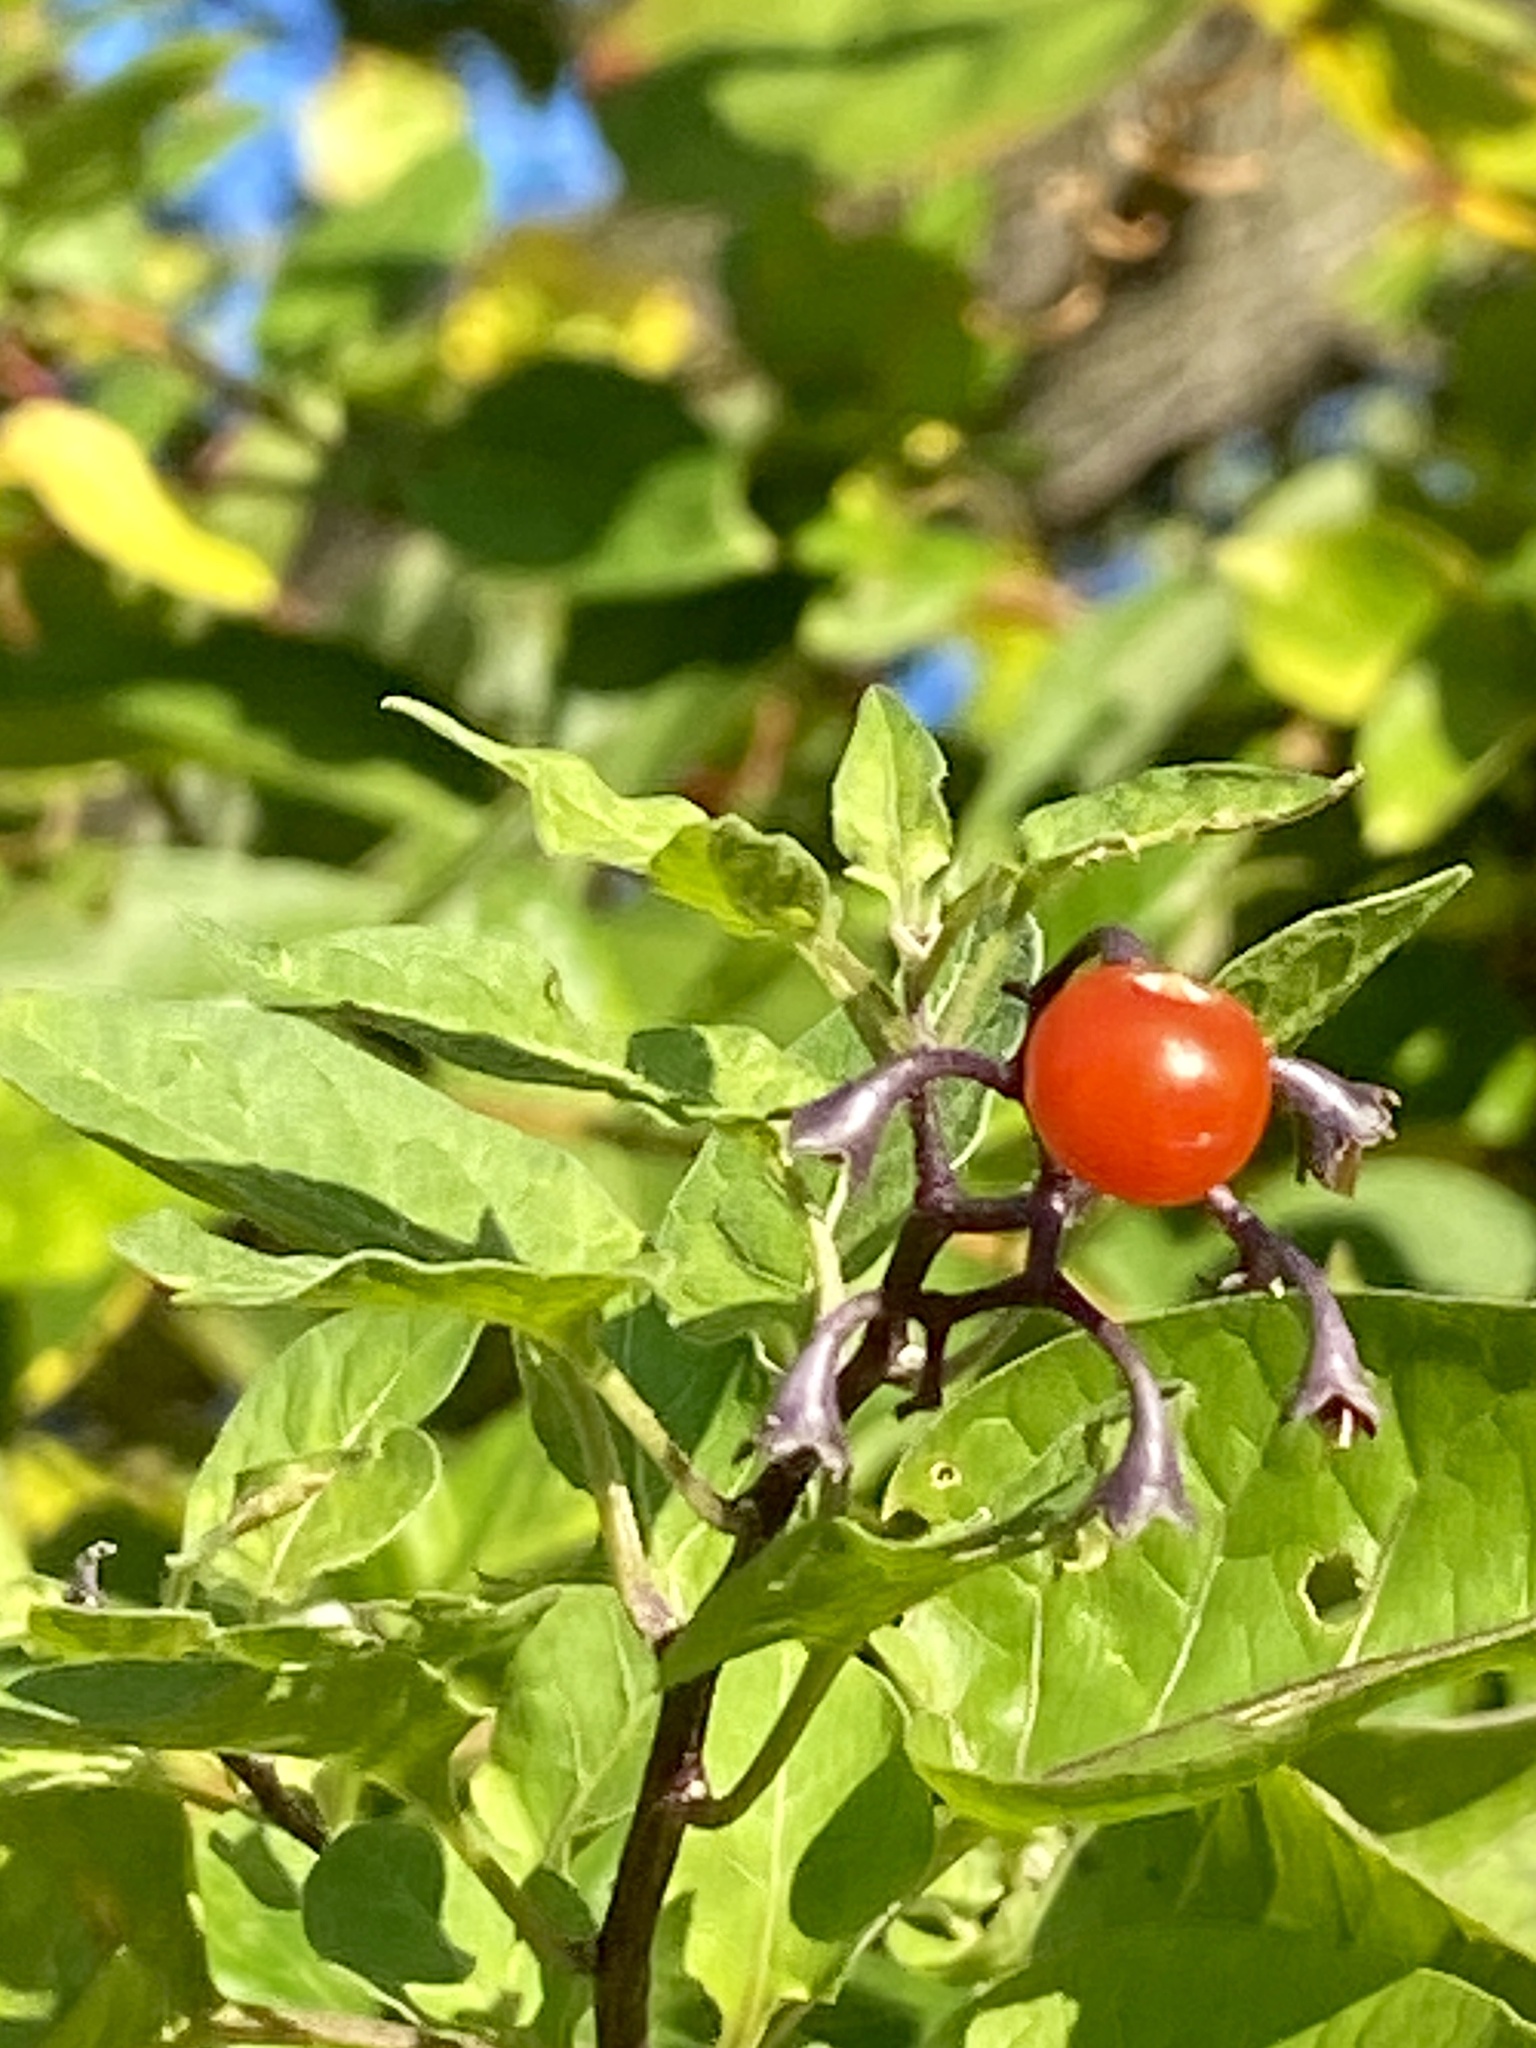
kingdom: Plantae
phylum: Tracheophyta
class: Magnoliopsida
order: Solanales
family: Solanaceae
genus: Solanum
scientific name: Solanum dulcamara
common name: Climbing nightshade
